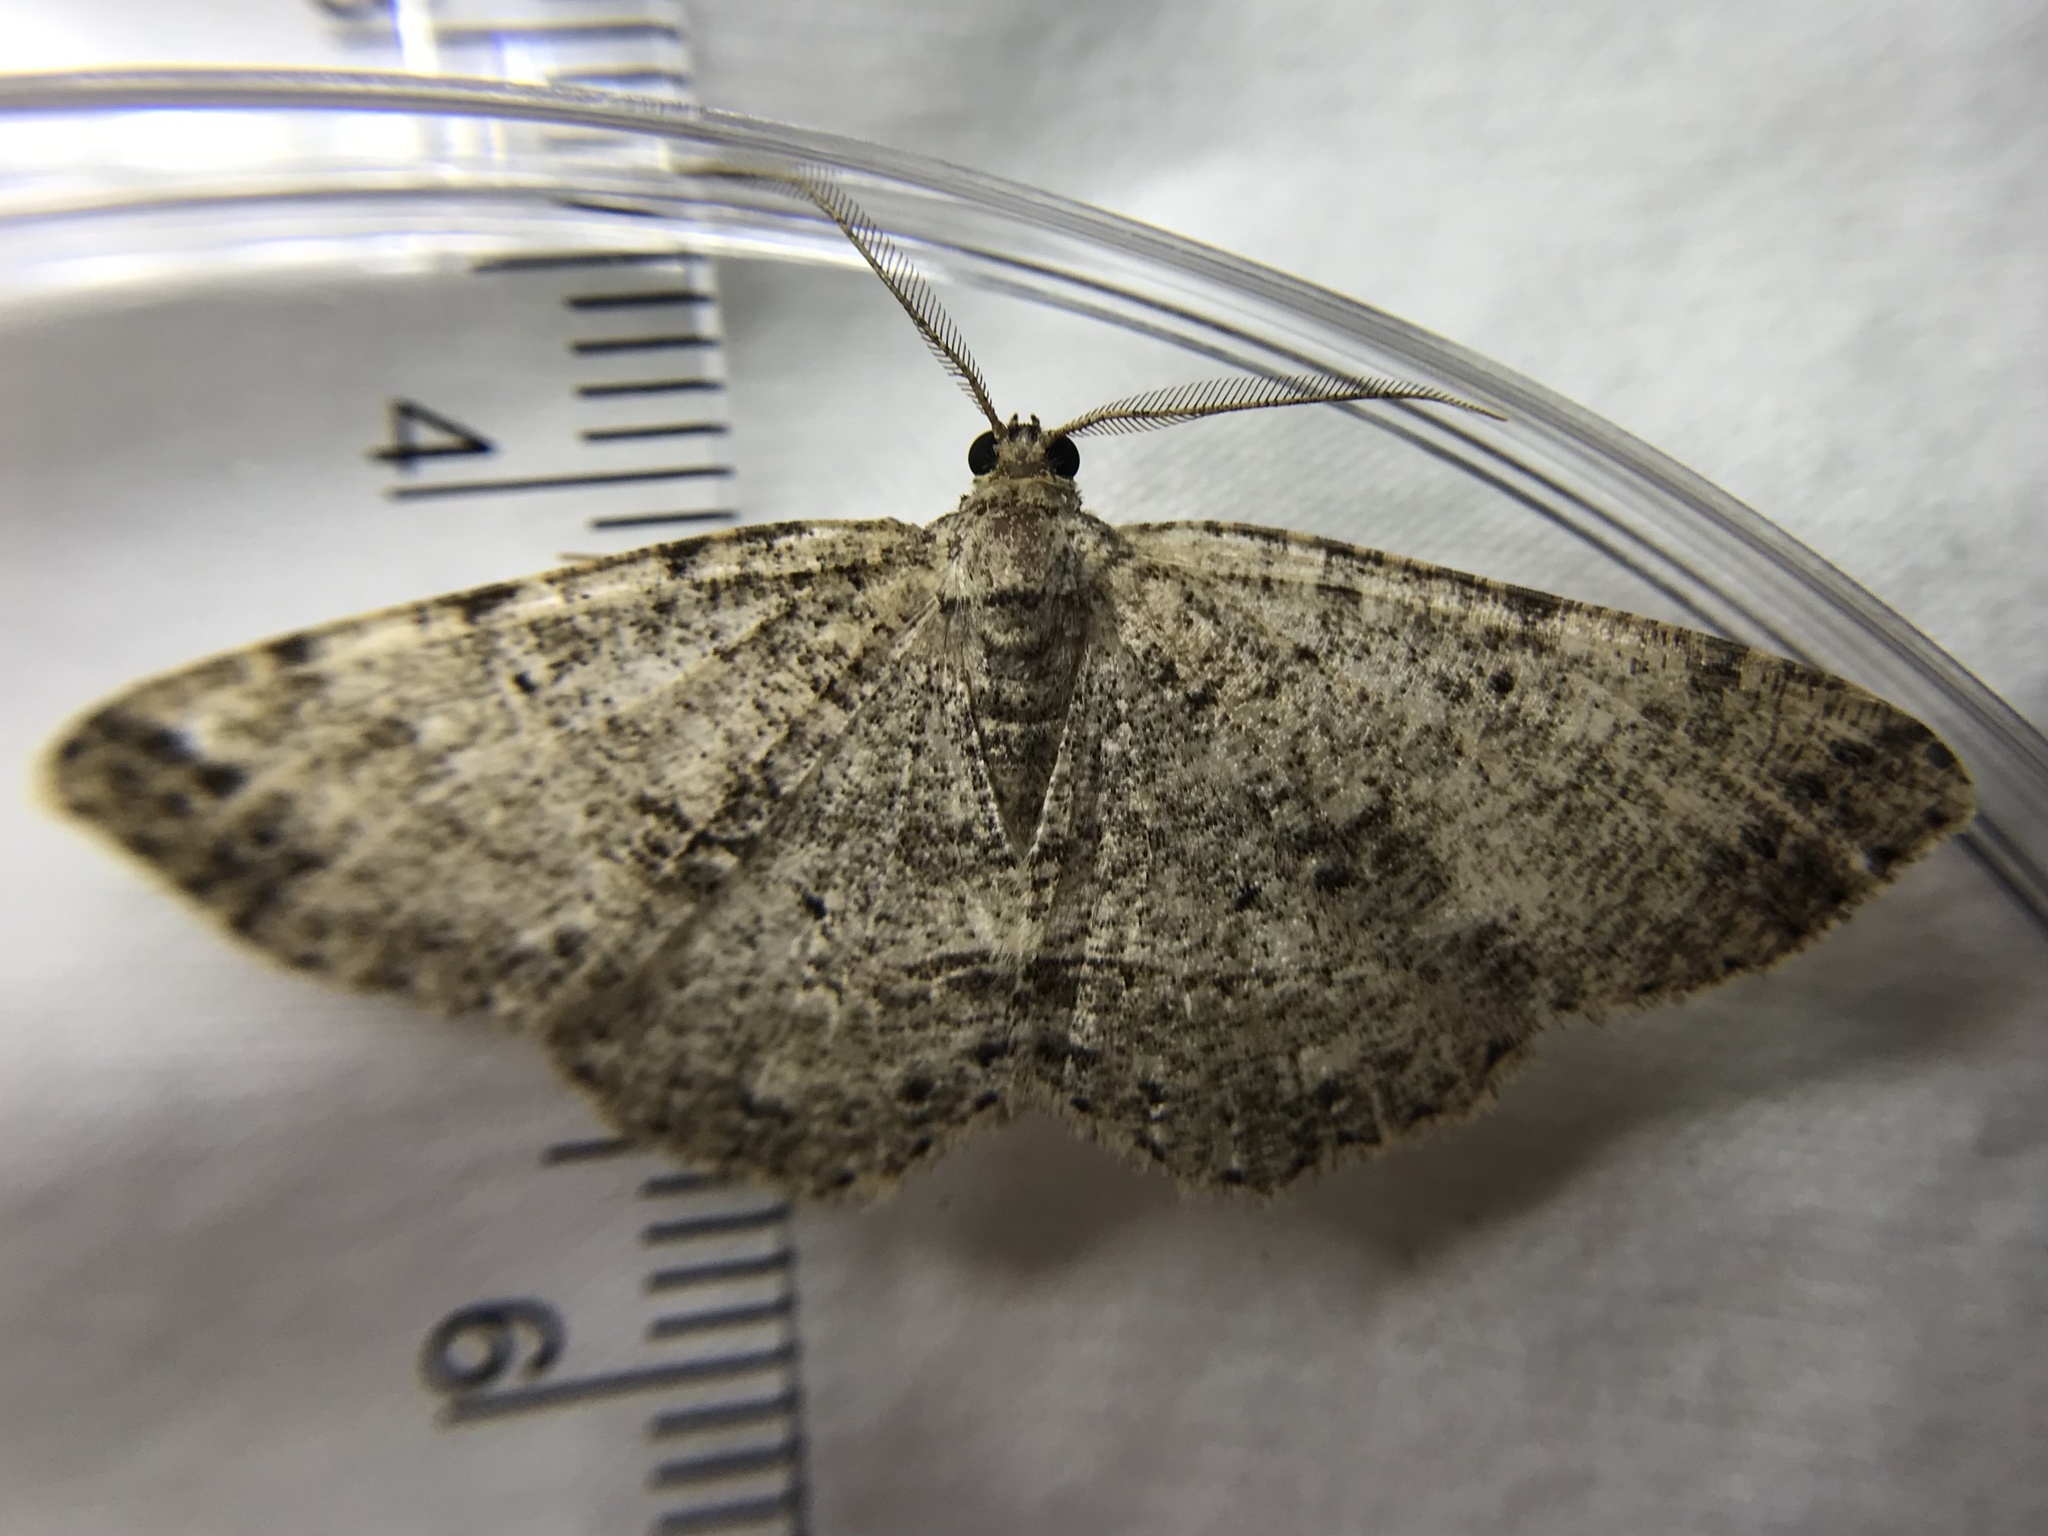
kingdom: Animalia
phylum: Arthropoda
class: Insecta
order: Lepidoptera
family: Geometridae
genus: Melanolophia
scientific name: Melanolophia canadaria
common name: Canadian melanolophia
